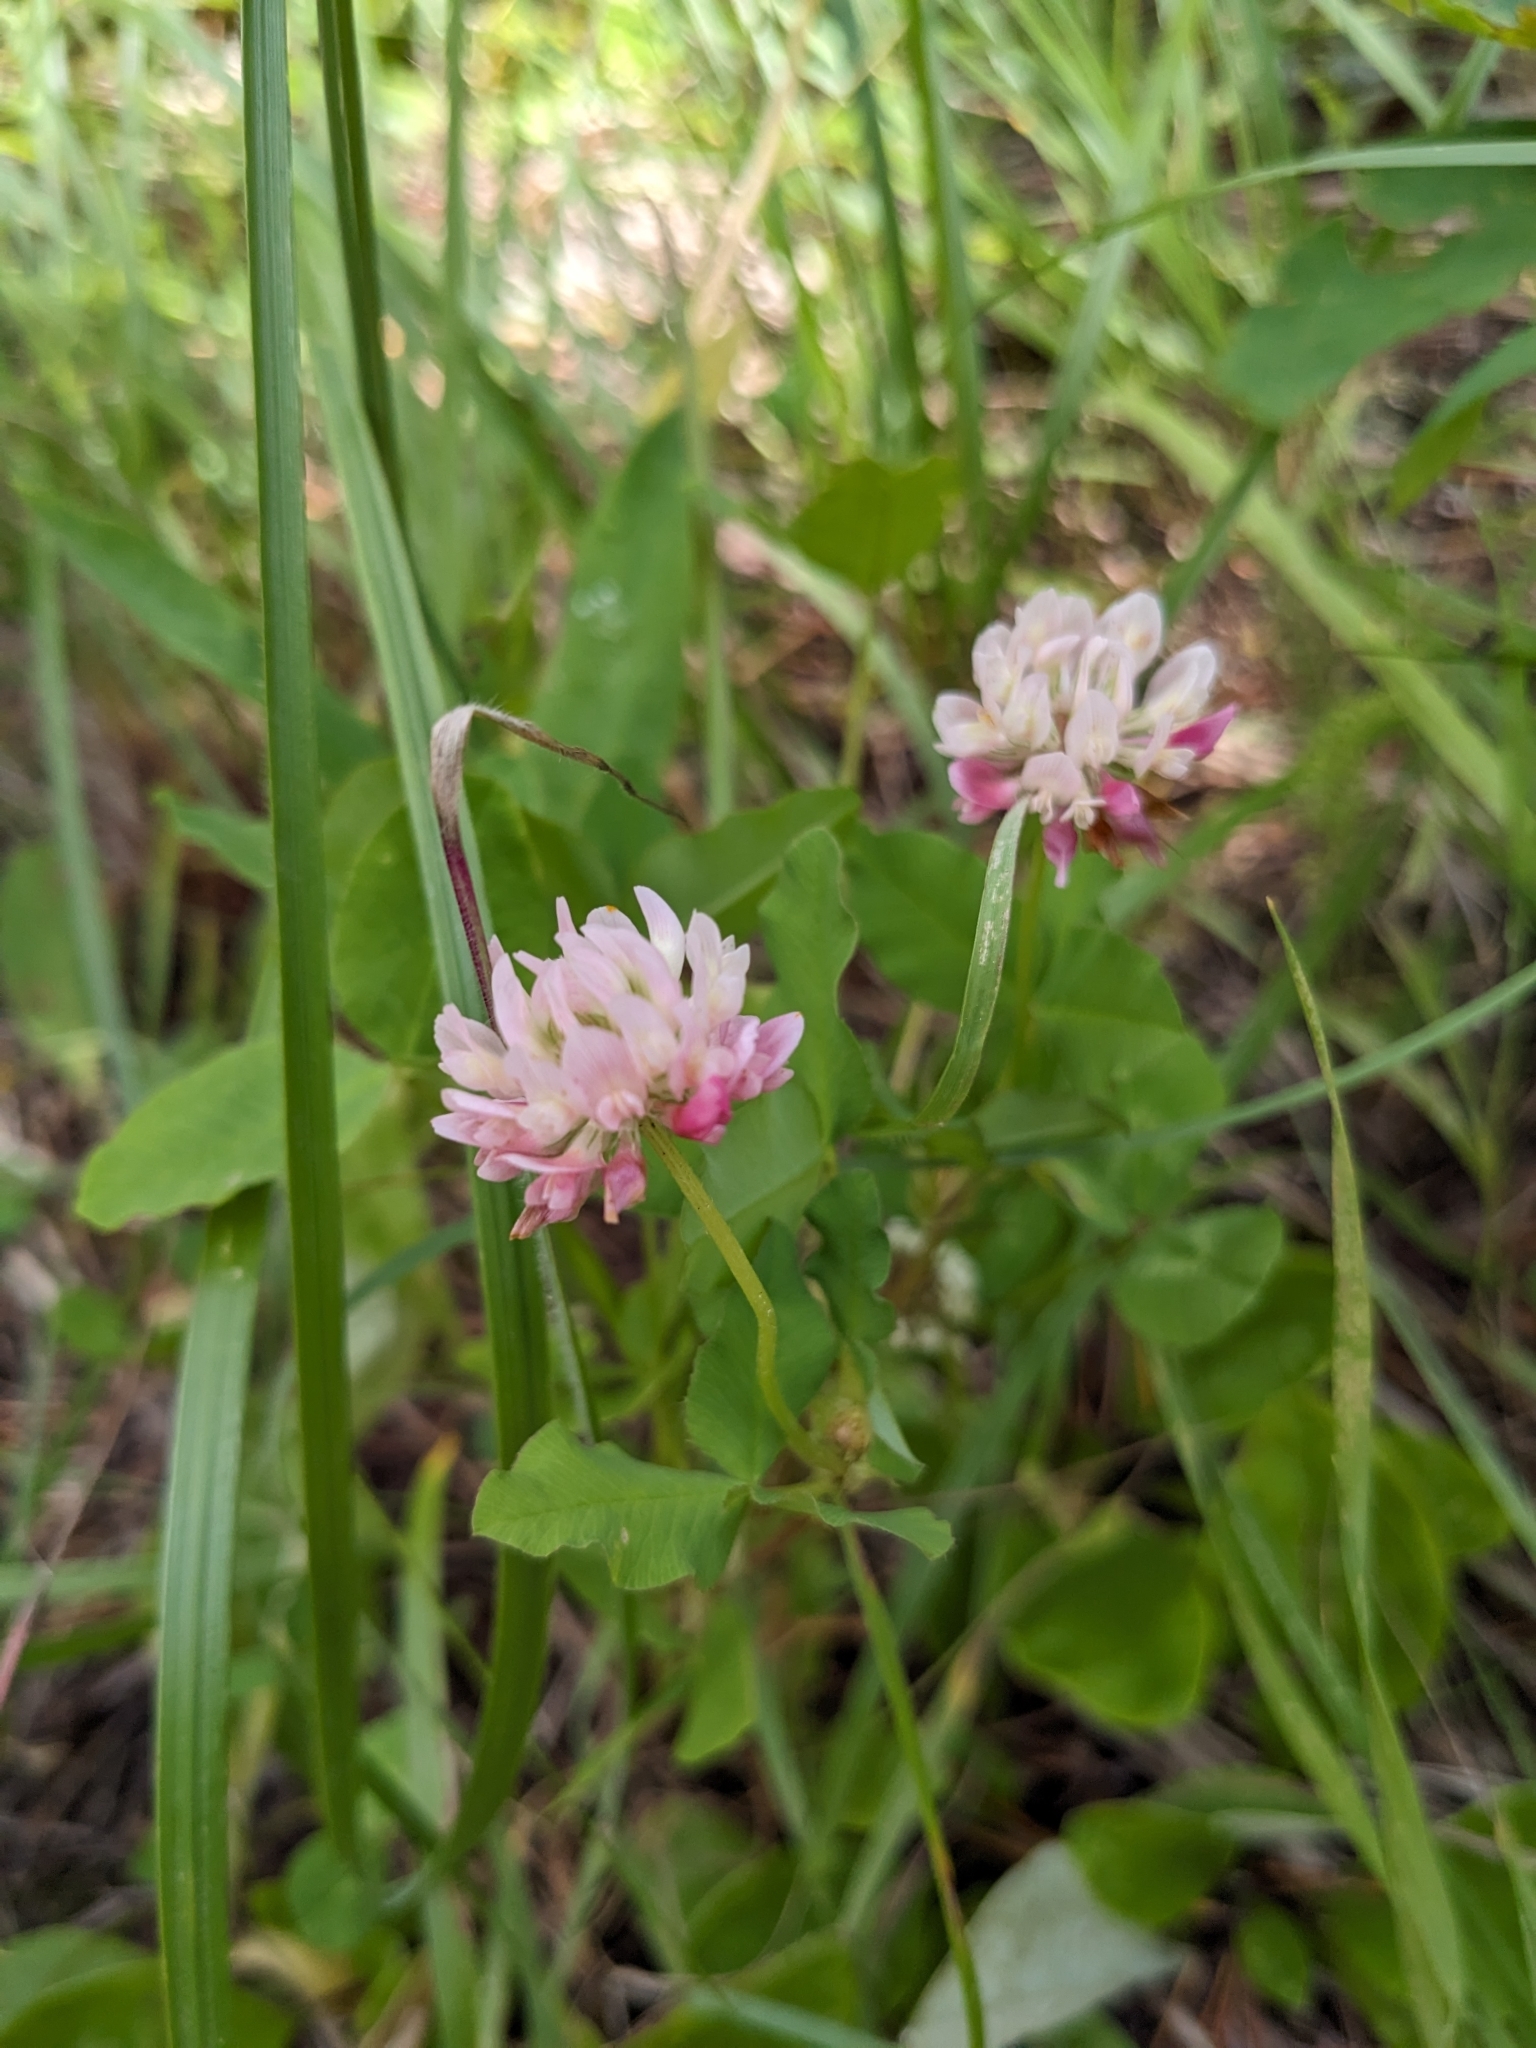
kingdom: Plantae
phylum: Tracheophyta
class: Magnoliopsida
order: Fabales
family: Fabaceae
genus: Trifolium
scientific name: Trifolium hybridum
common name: Alsike clover
